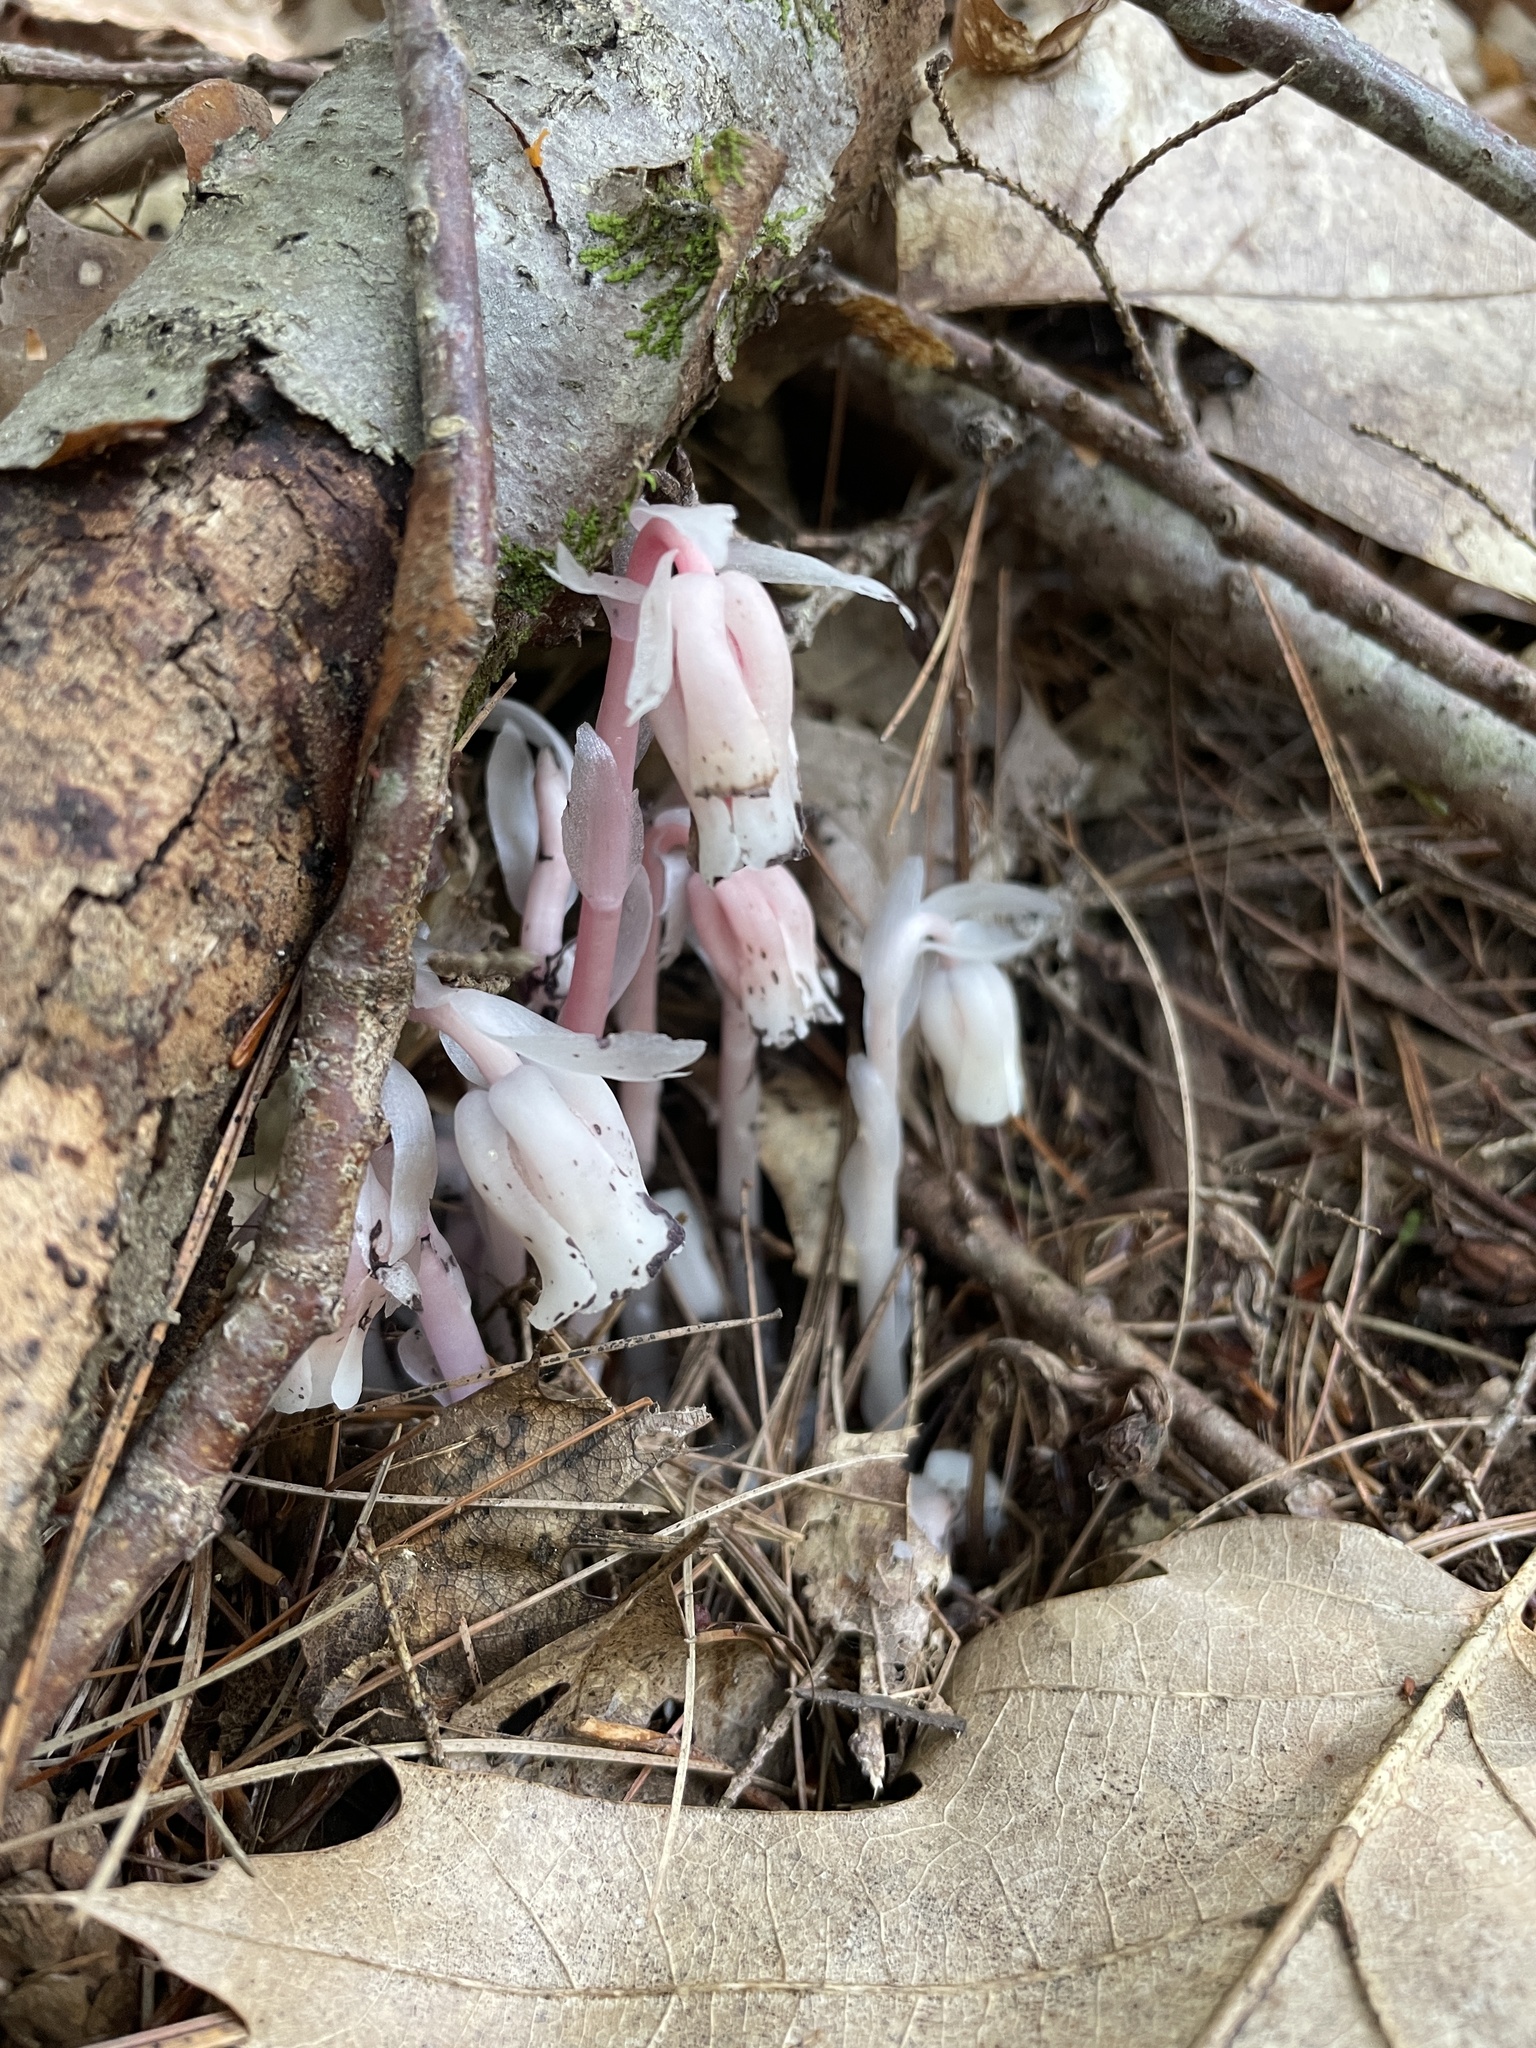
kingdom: Plantae
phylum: Tracheophyta
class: Magnoliopsida
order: Ericales
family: Ericaceae
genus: Monotropa
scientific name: Monotropa uniflora
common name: Convulsion root
